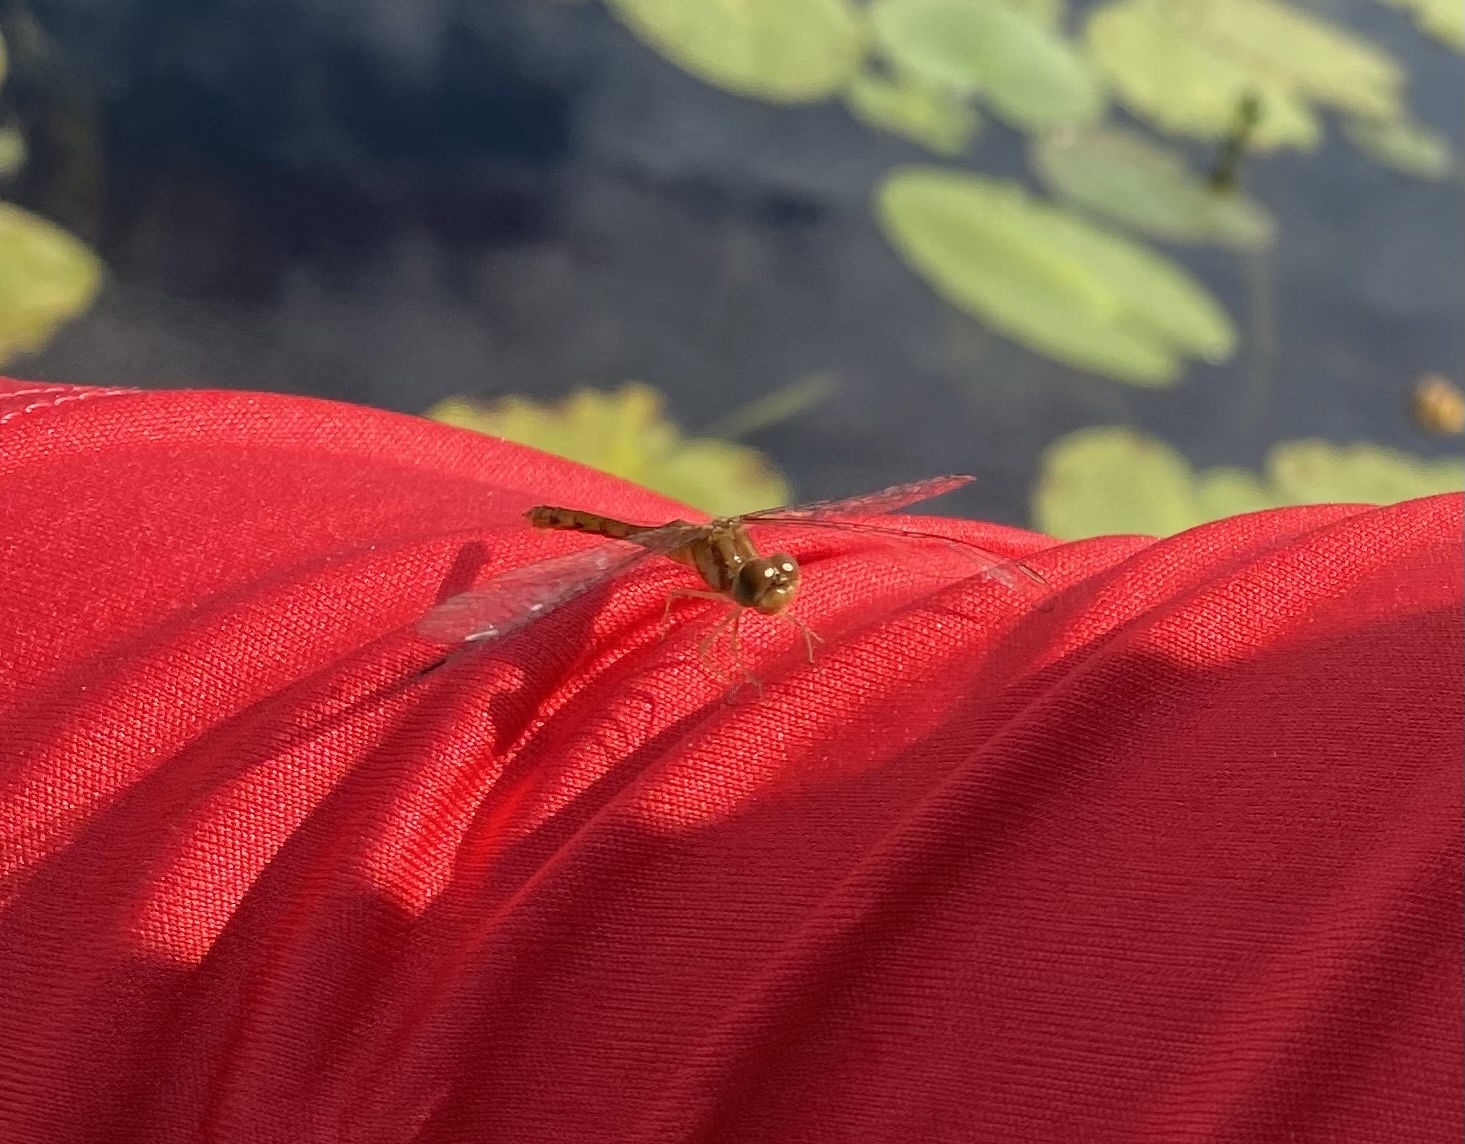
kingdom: Animalia
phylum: Arthropoda
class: Insecta
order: Odonata
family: Libellulidae
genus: Sympetrum
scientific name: Sympetrum vicinum
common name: Autumn meadowhawk
